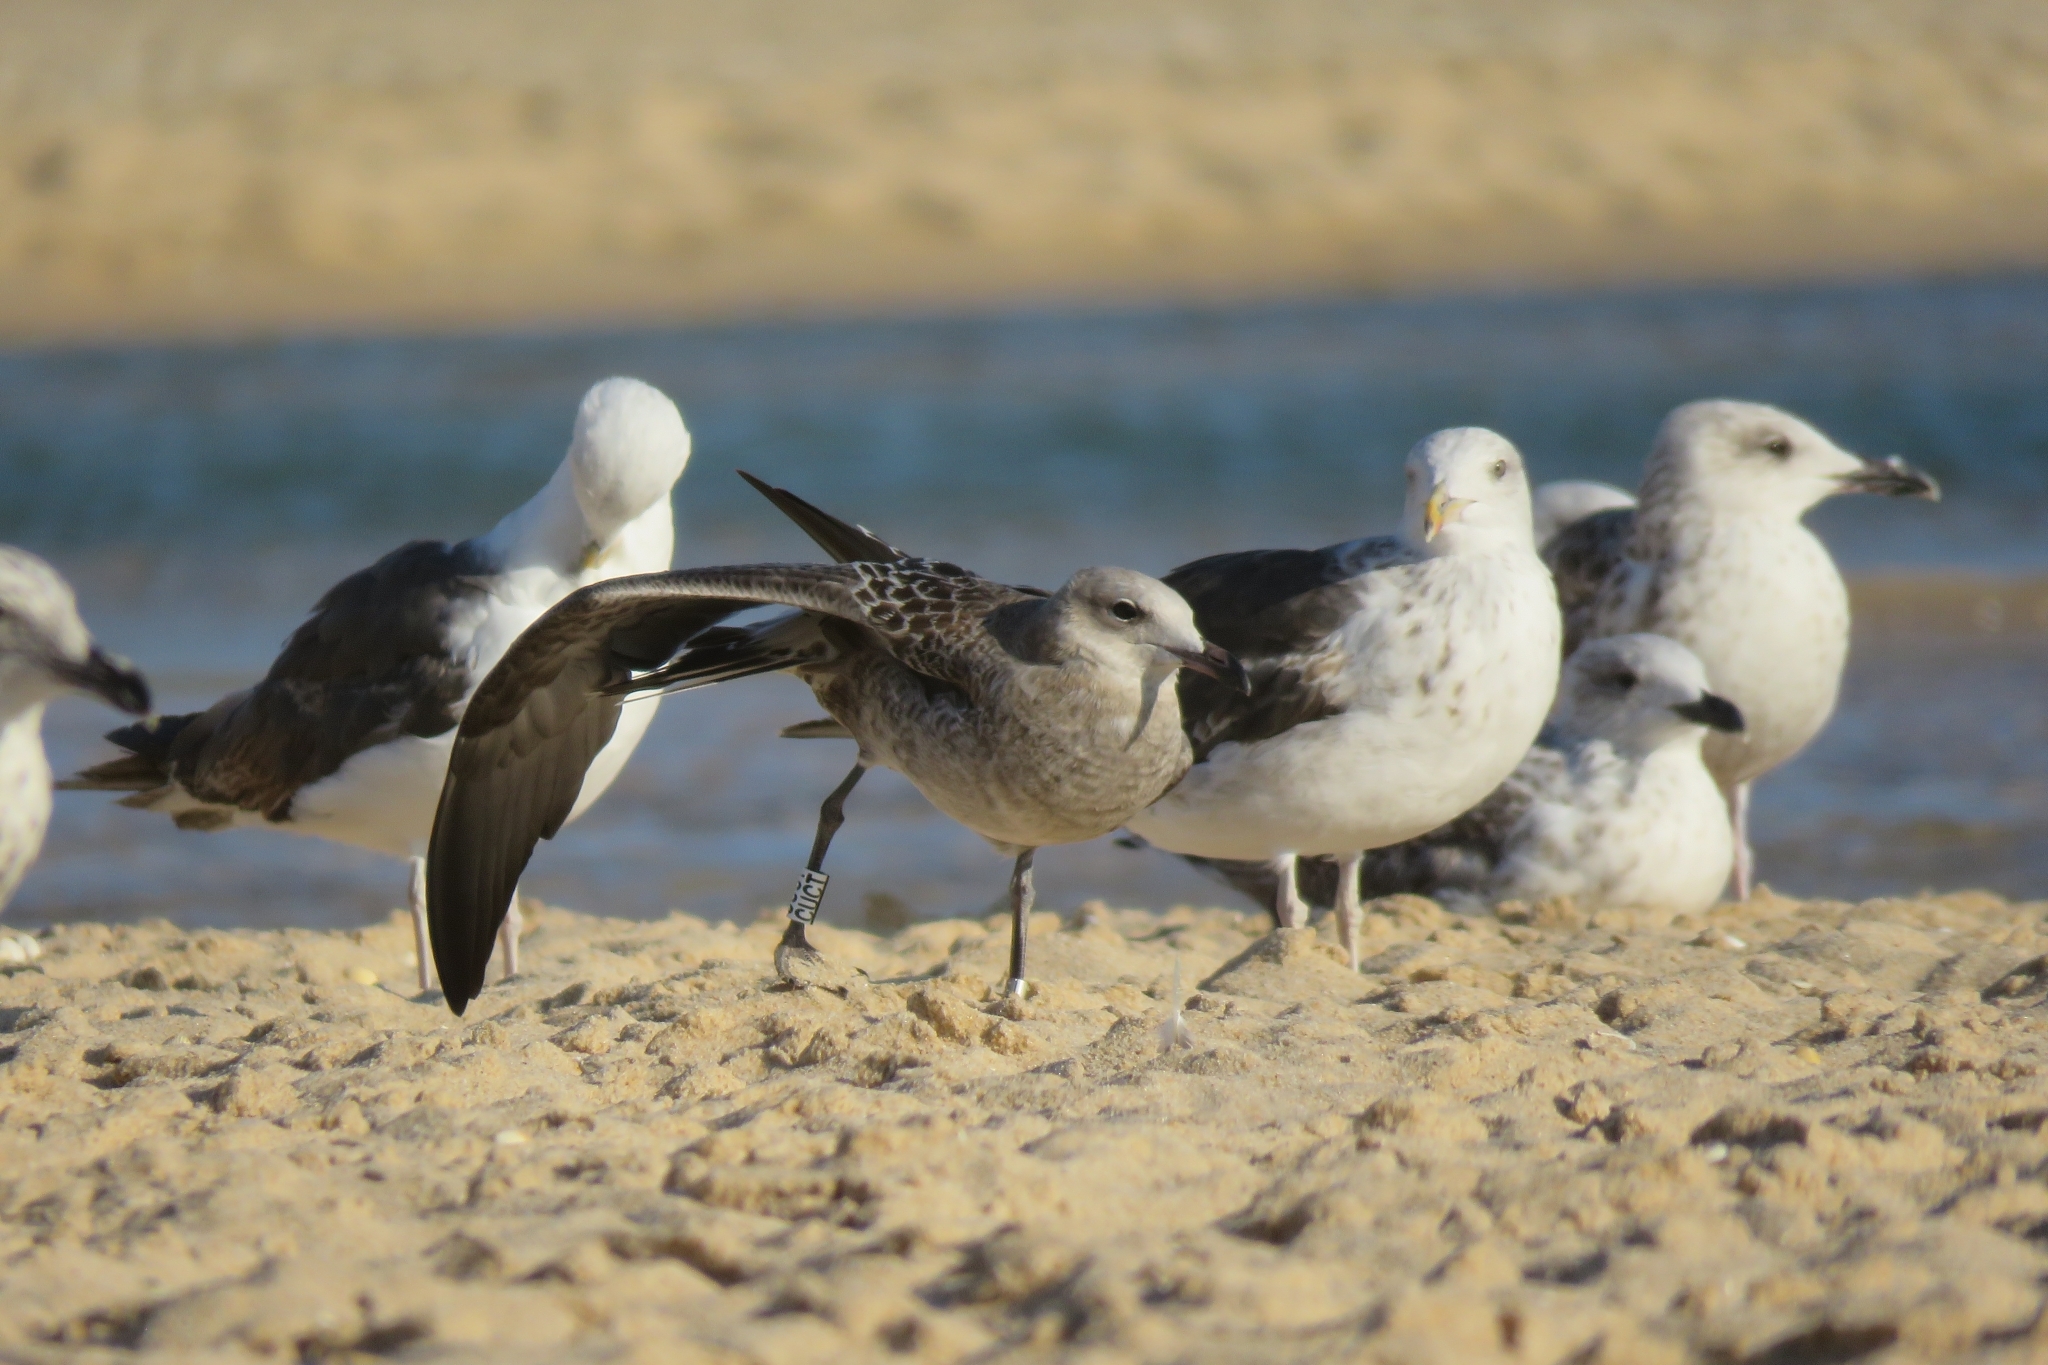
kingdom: Animalia
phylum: Chordata
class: Aves
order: Charadriiformes
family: Laridae
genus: Ichthyaetus
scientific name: Ichthyaetus audouinii
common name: Audouin's gull
